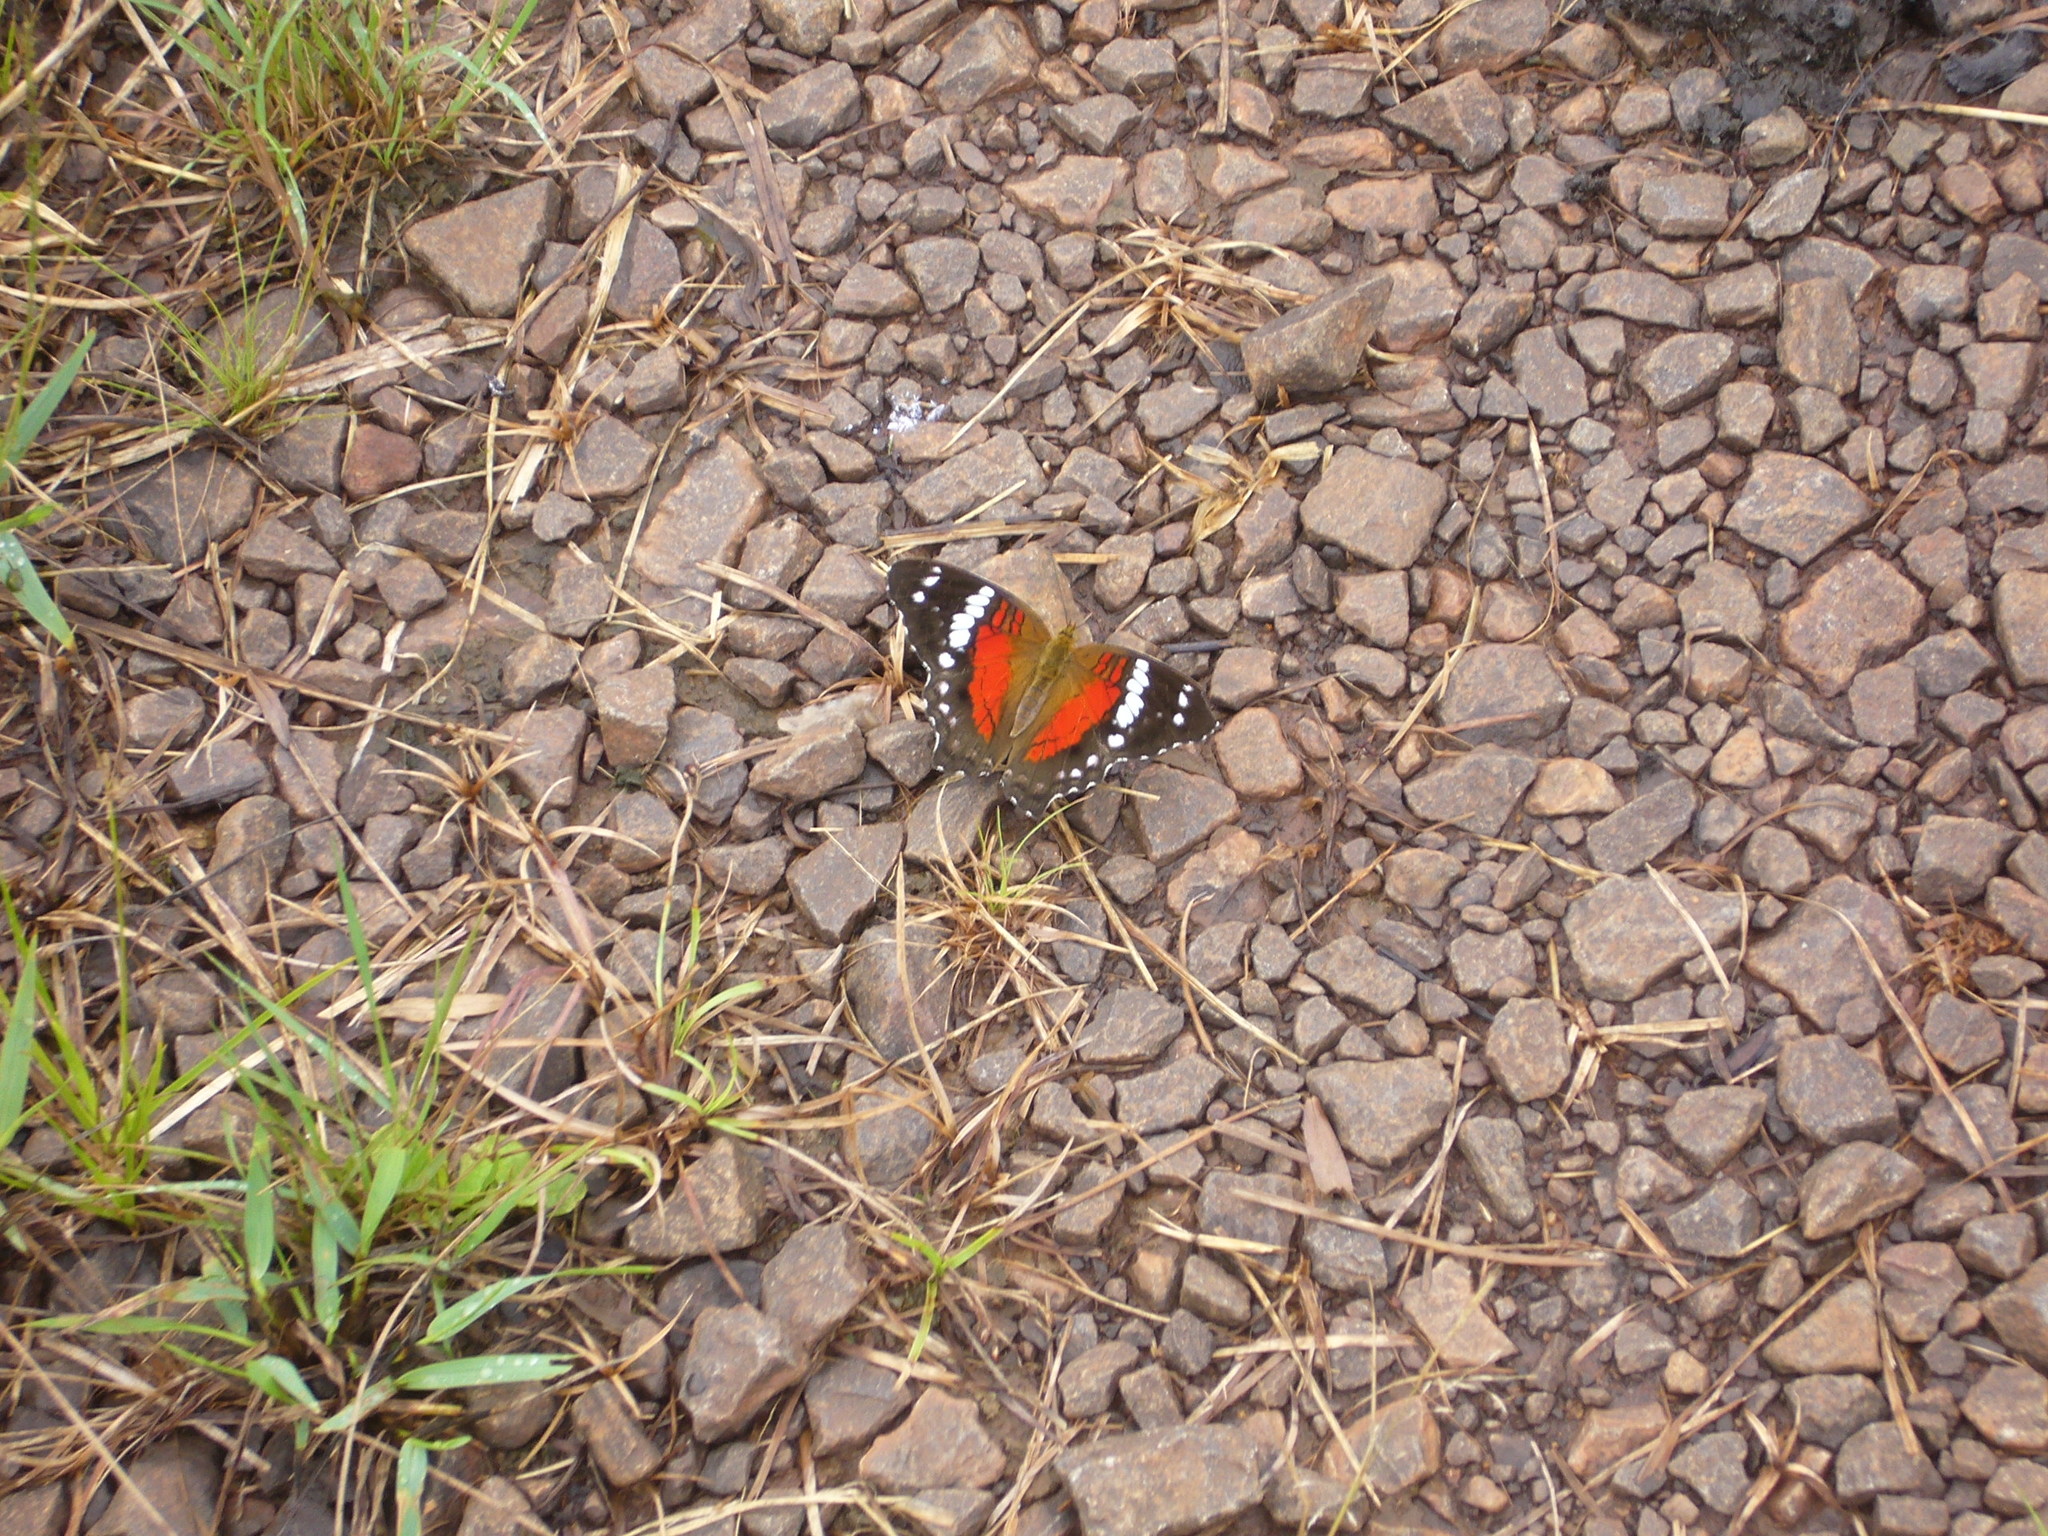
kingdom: Animalia
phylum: Arthropoda
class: Insecta
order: Lepidoptera
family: Nymphalidae
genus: Anartia
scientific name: Anartia amathea
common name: Red peacock
